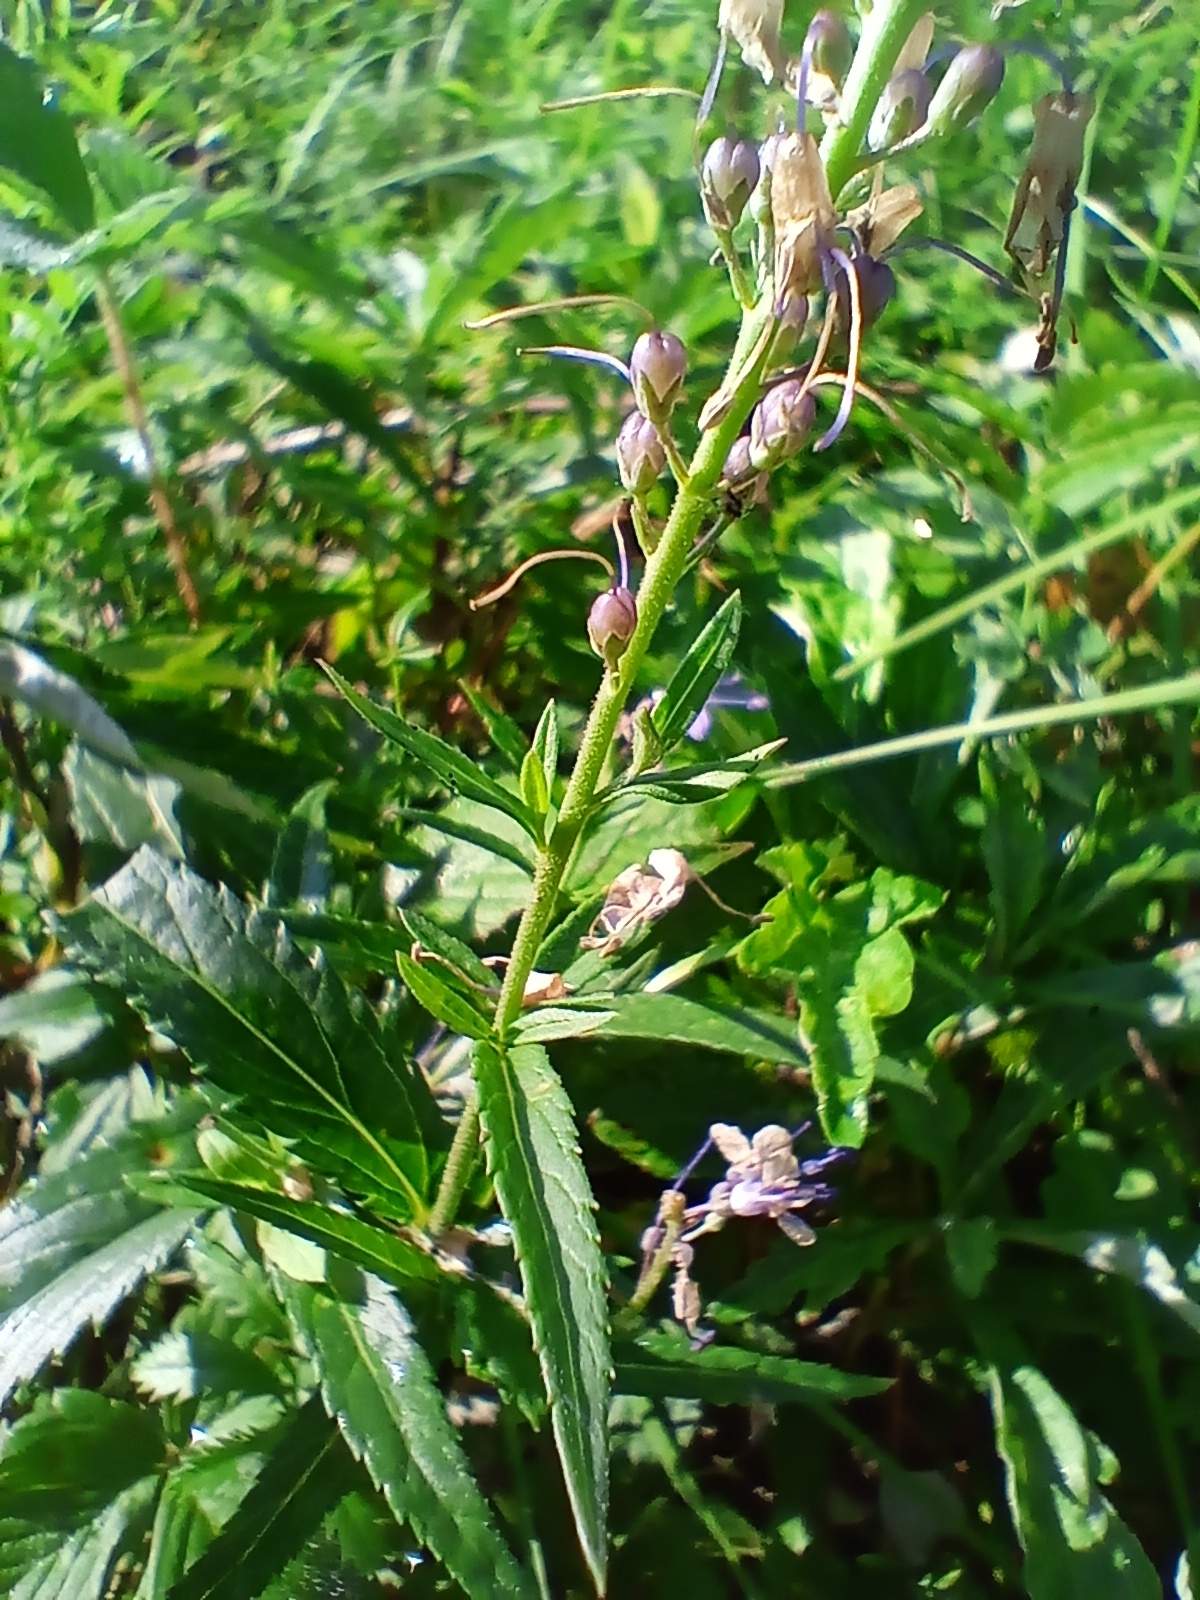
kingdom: Plantae
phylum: Tracheophyta
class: Magnoliopsida
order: Lamiales
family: Plantaginaceae
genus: Veronica
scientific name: Veronica longifolia
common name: Garden speedwell
